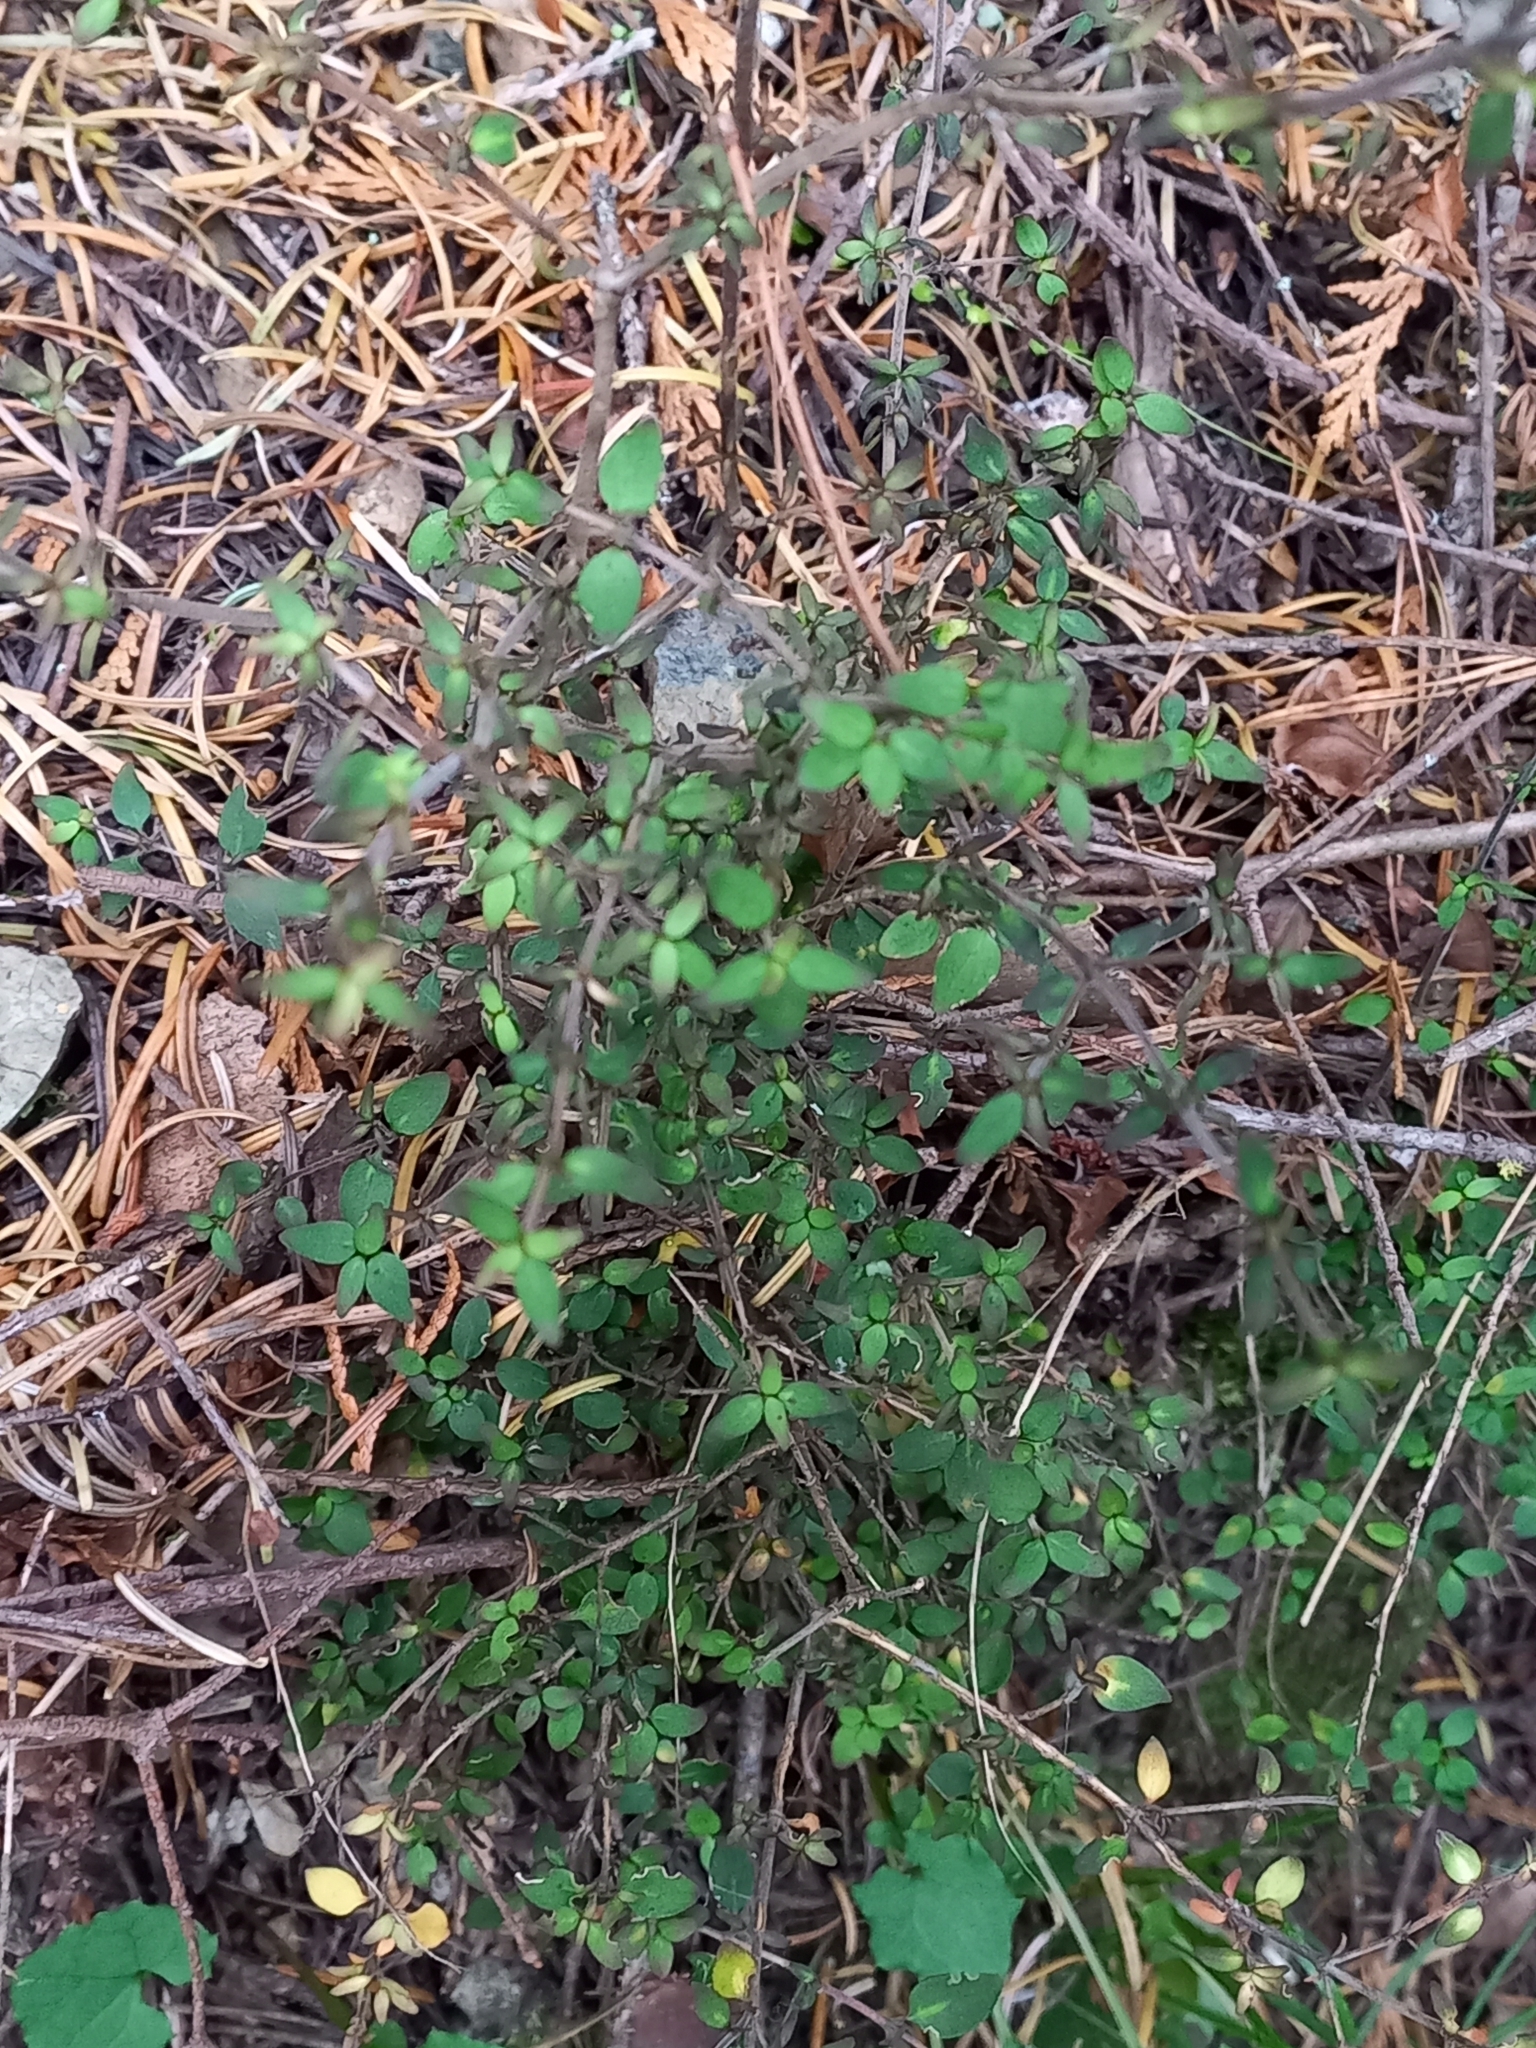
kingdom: Plantae
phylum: Tracheophyta
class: Magnoliopsida
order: Gentianales
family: Rubiaceae
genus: Coprosma
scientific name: Coprosma rhamnoides
